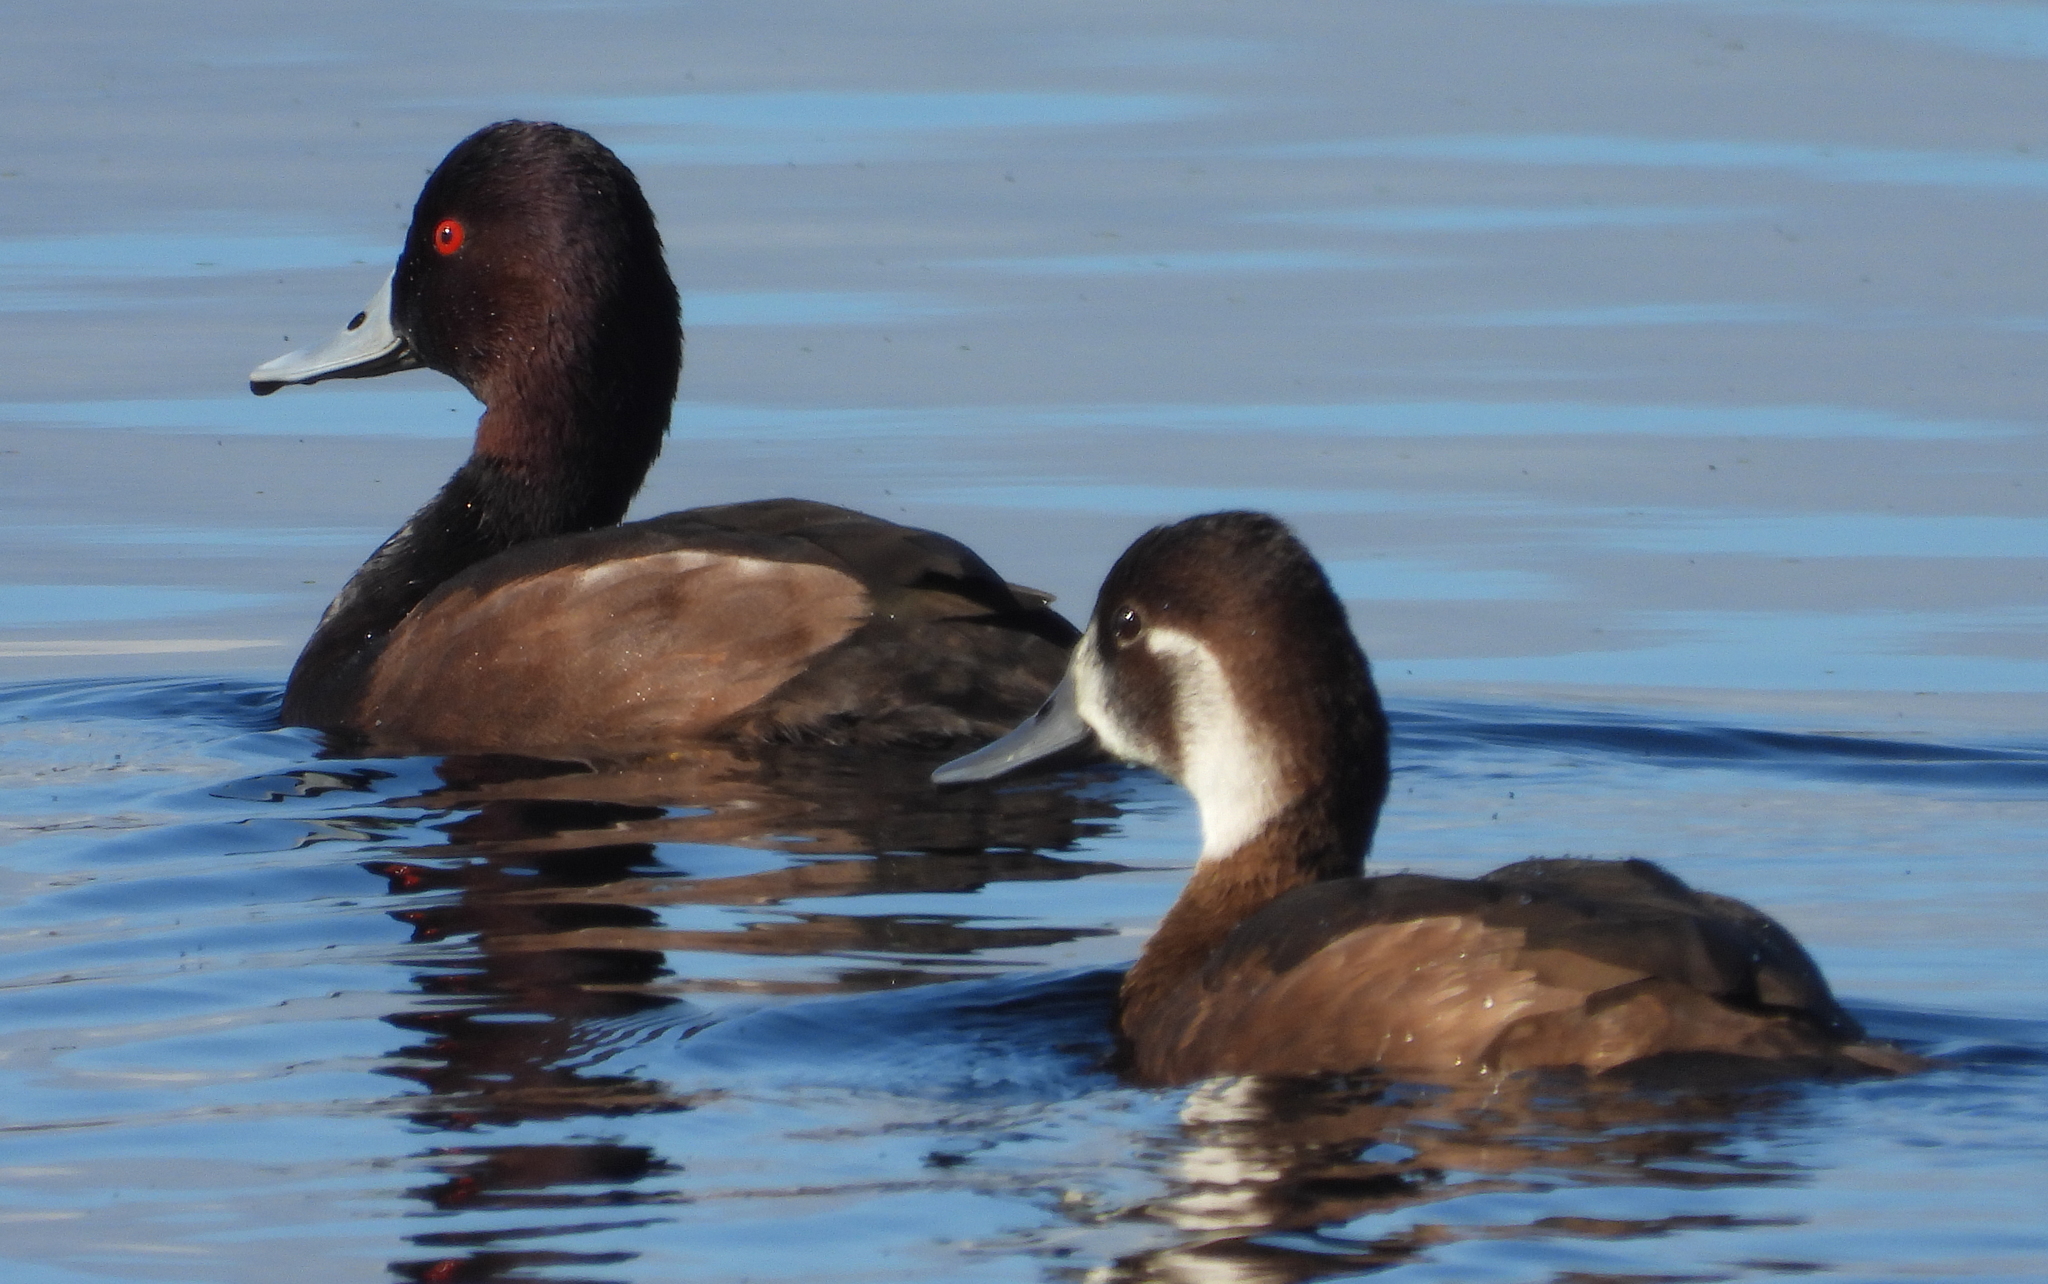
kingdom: Animalia
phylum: Chordata
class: Aves
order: Anseriformes
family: Anatidae
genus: Netta
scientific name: Netta erythrophthalma
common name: Southern pochard
